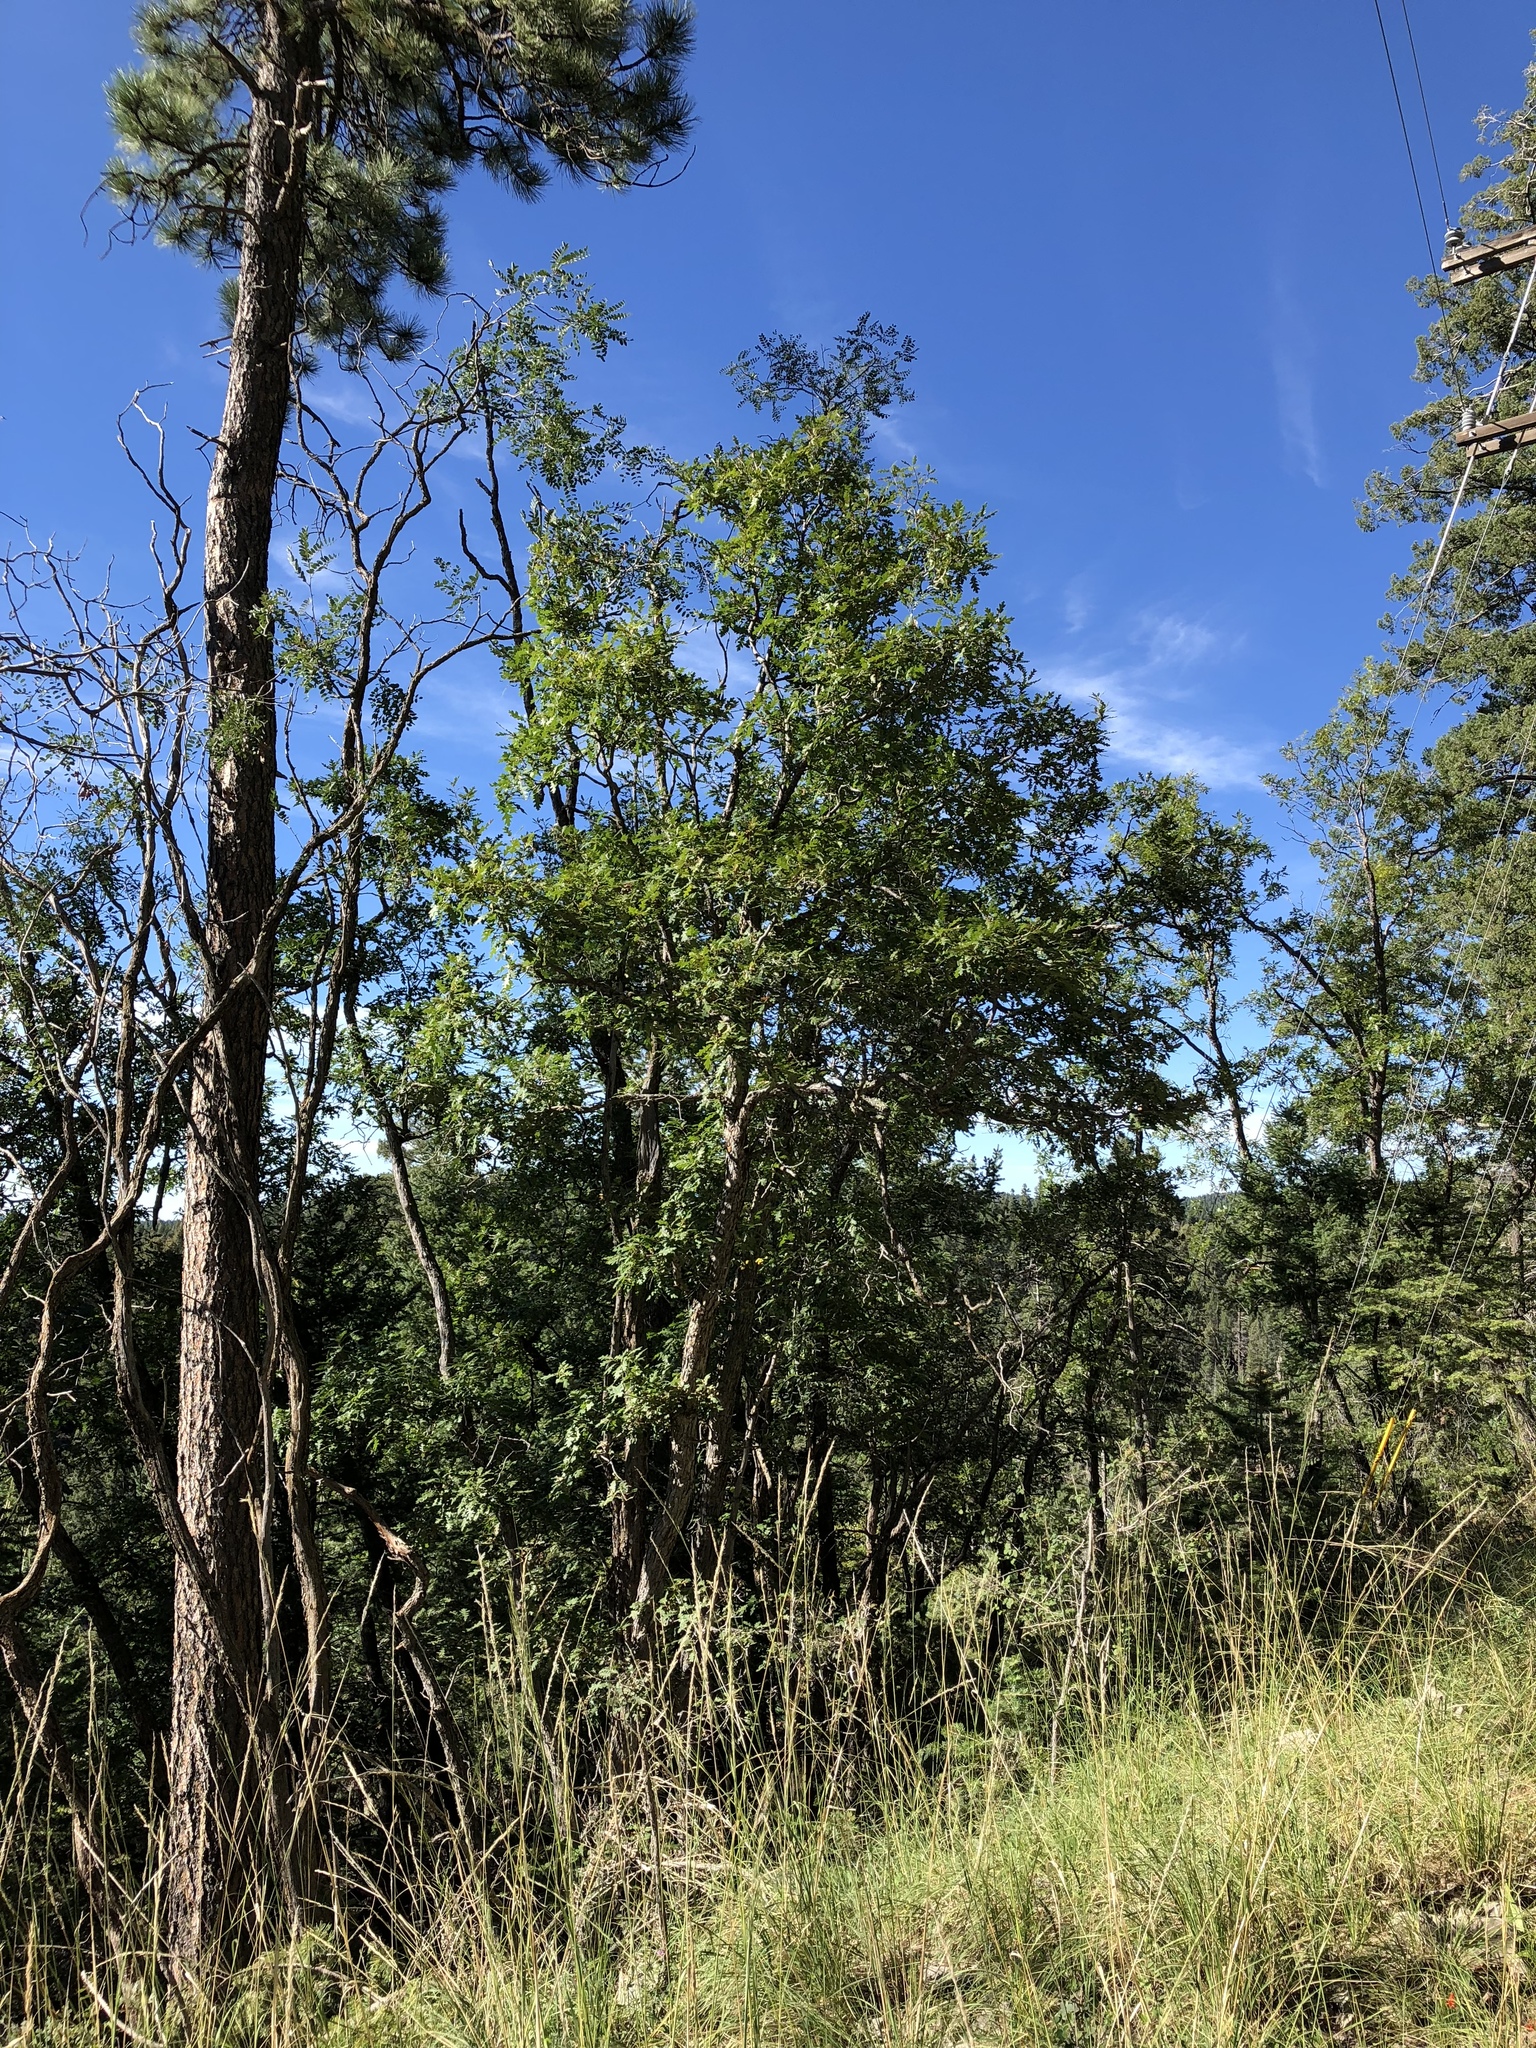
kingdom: Plantae
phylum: Tracheophyta
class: Magnoliopsida
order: Fagales
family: Fagaceae
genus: Quercus
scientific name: Quercus gambelii
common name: Gambel oak
